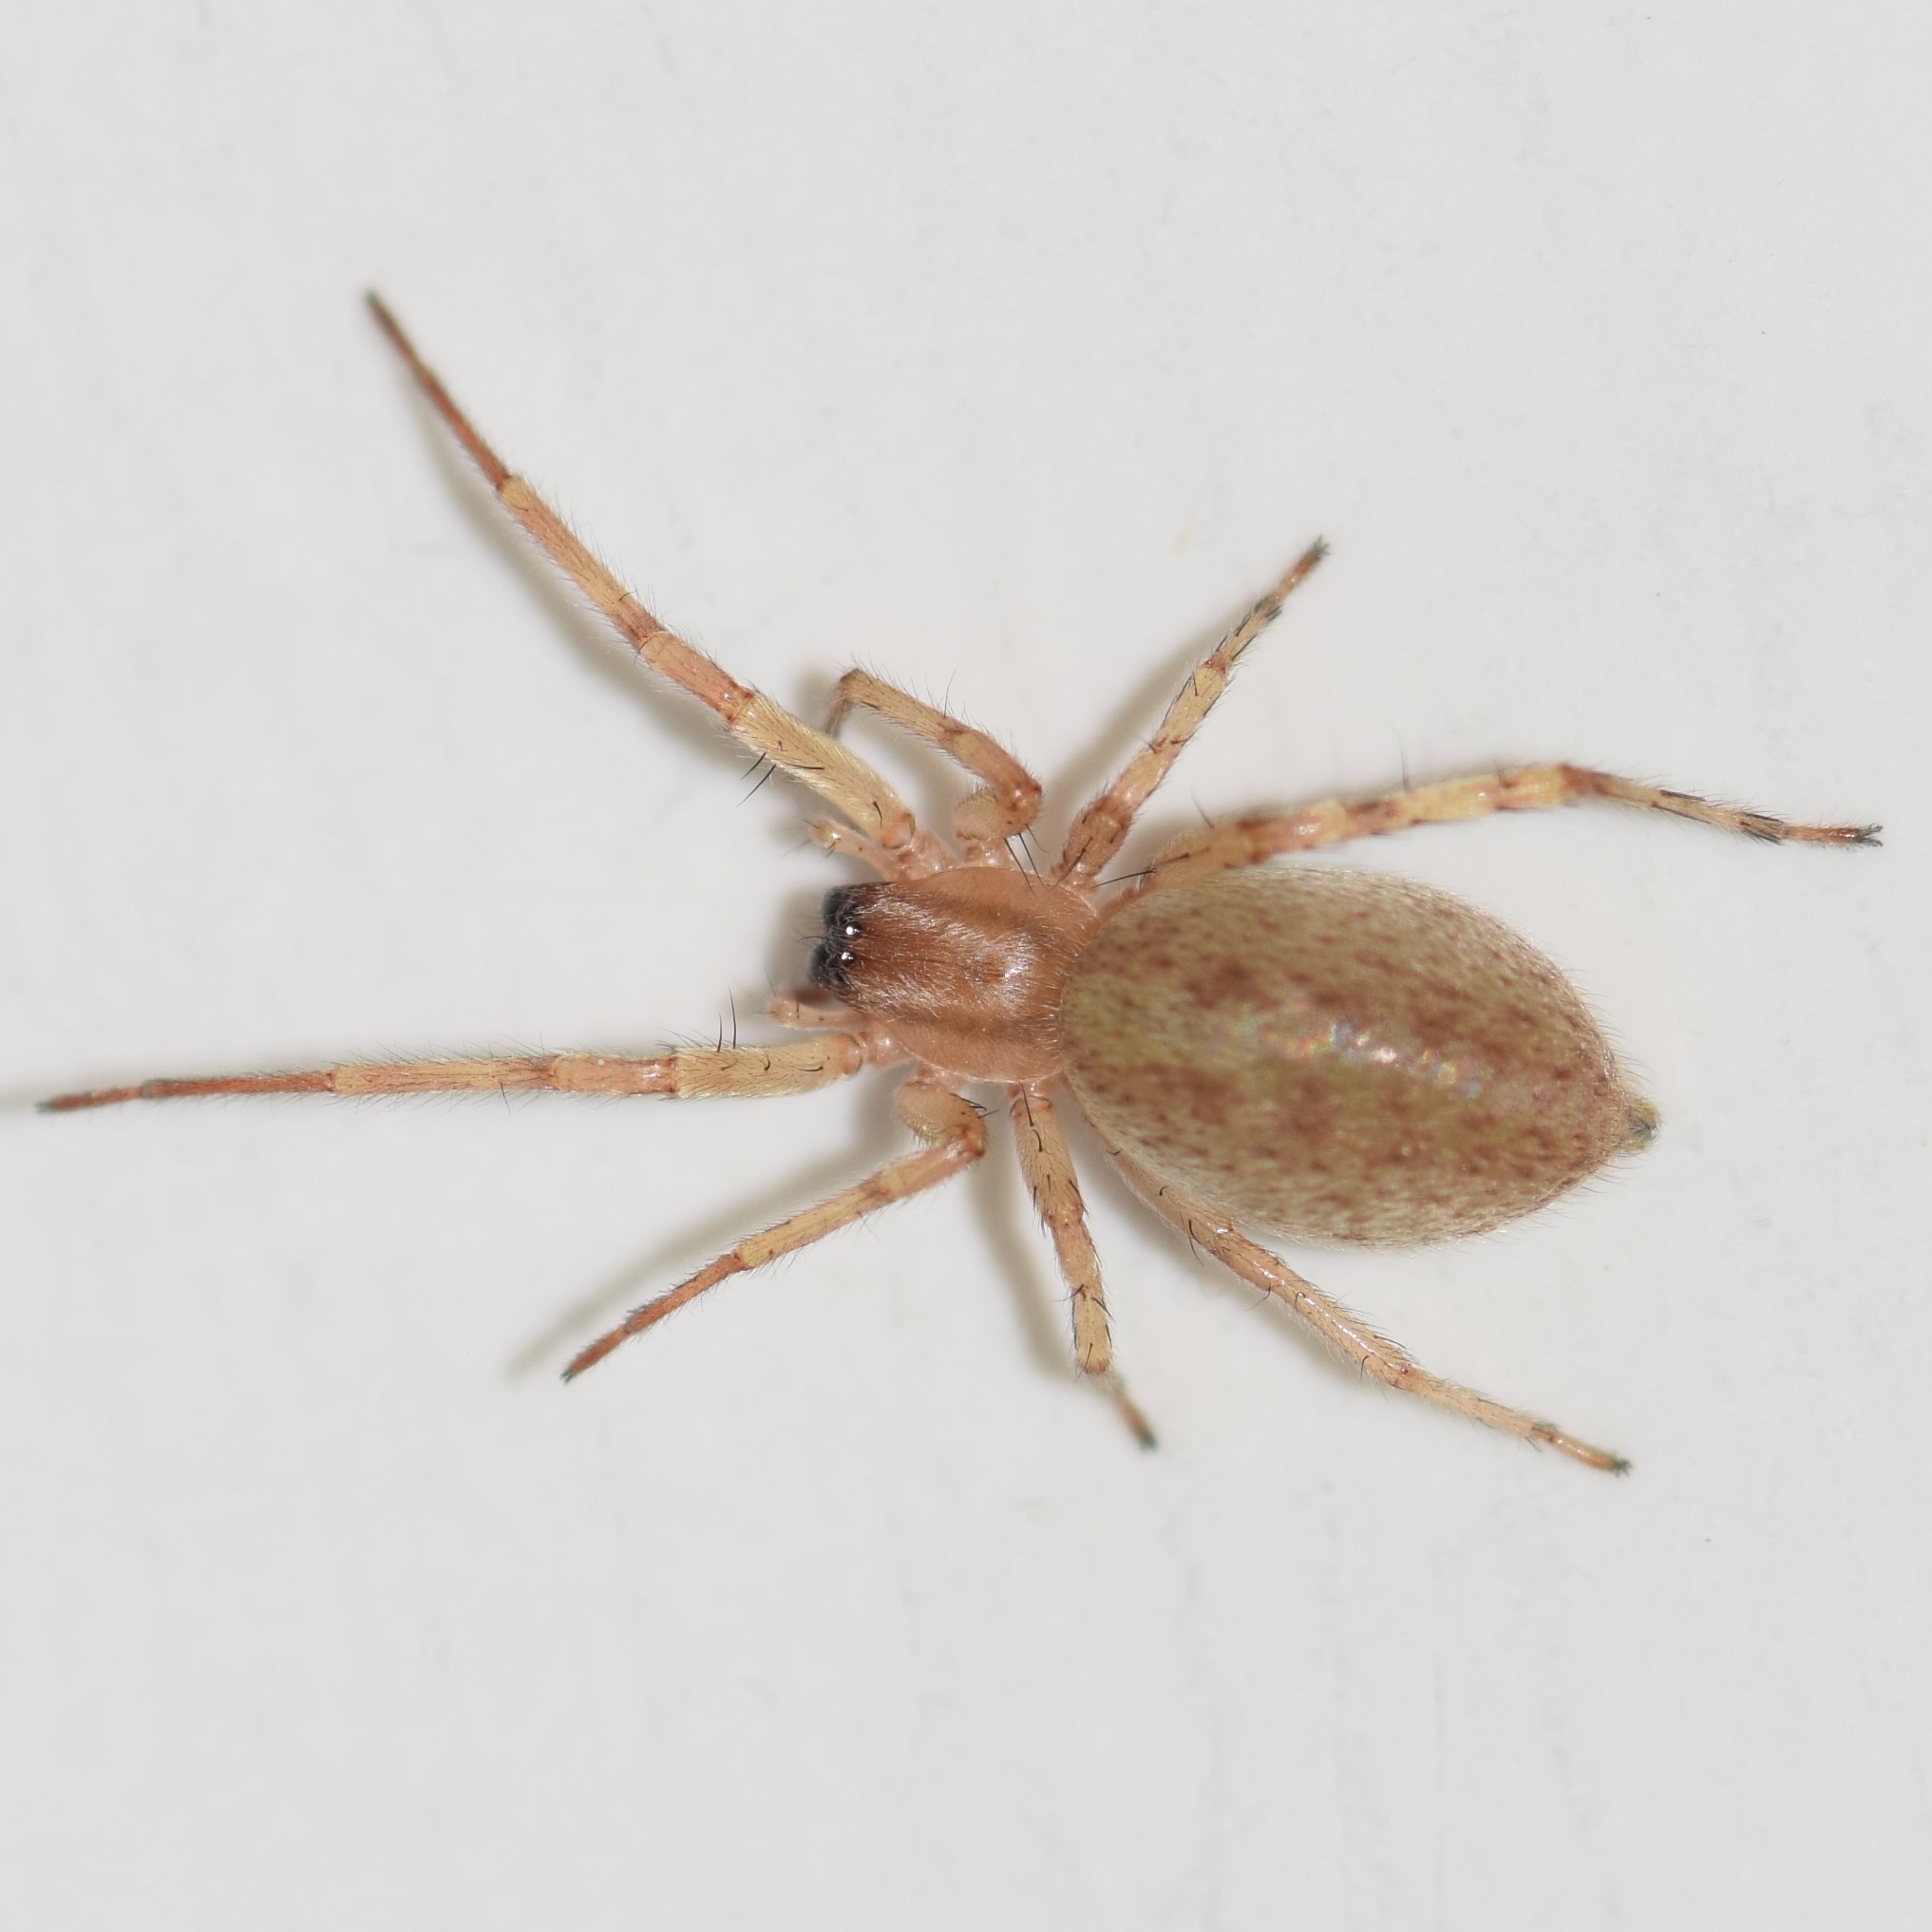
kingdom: Animalia
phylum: Arthropoda
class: Arachnida
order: Araneae
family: Anyphaenidae
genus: Hibana
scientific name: Hibana gracilis
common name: Garden ghost spider
